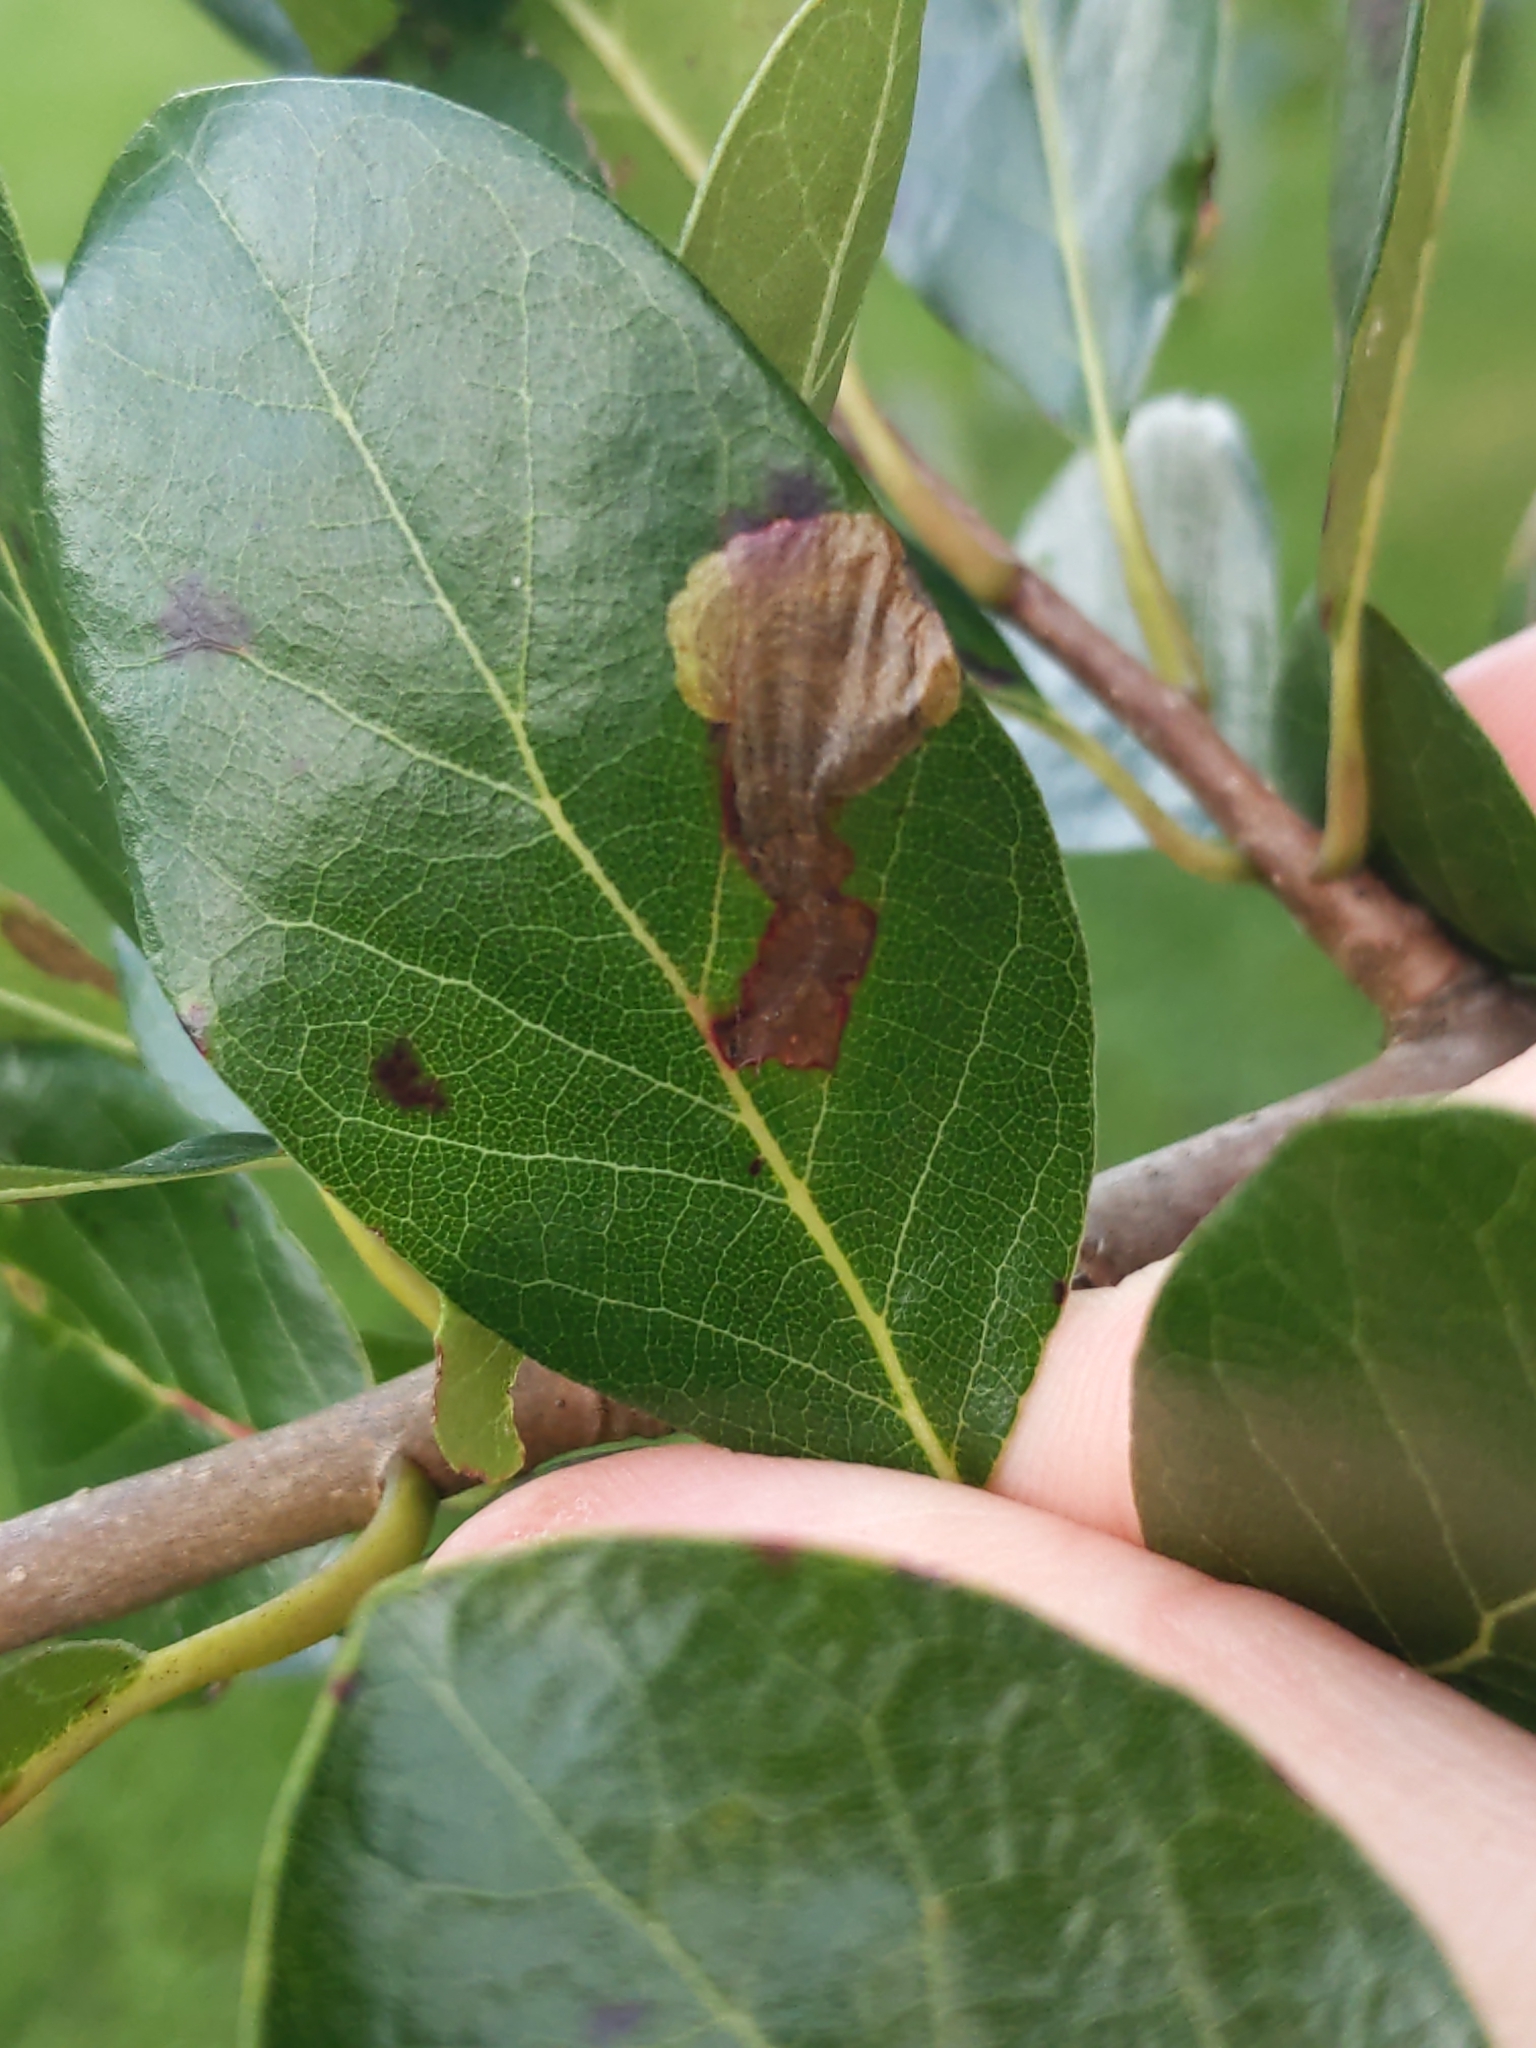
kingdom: Animalia
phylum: Arthropoda
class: Insecta
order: Lepidoptera
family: Heliozelidae
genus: Antispila
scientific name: Antispila nyssaefoliella
